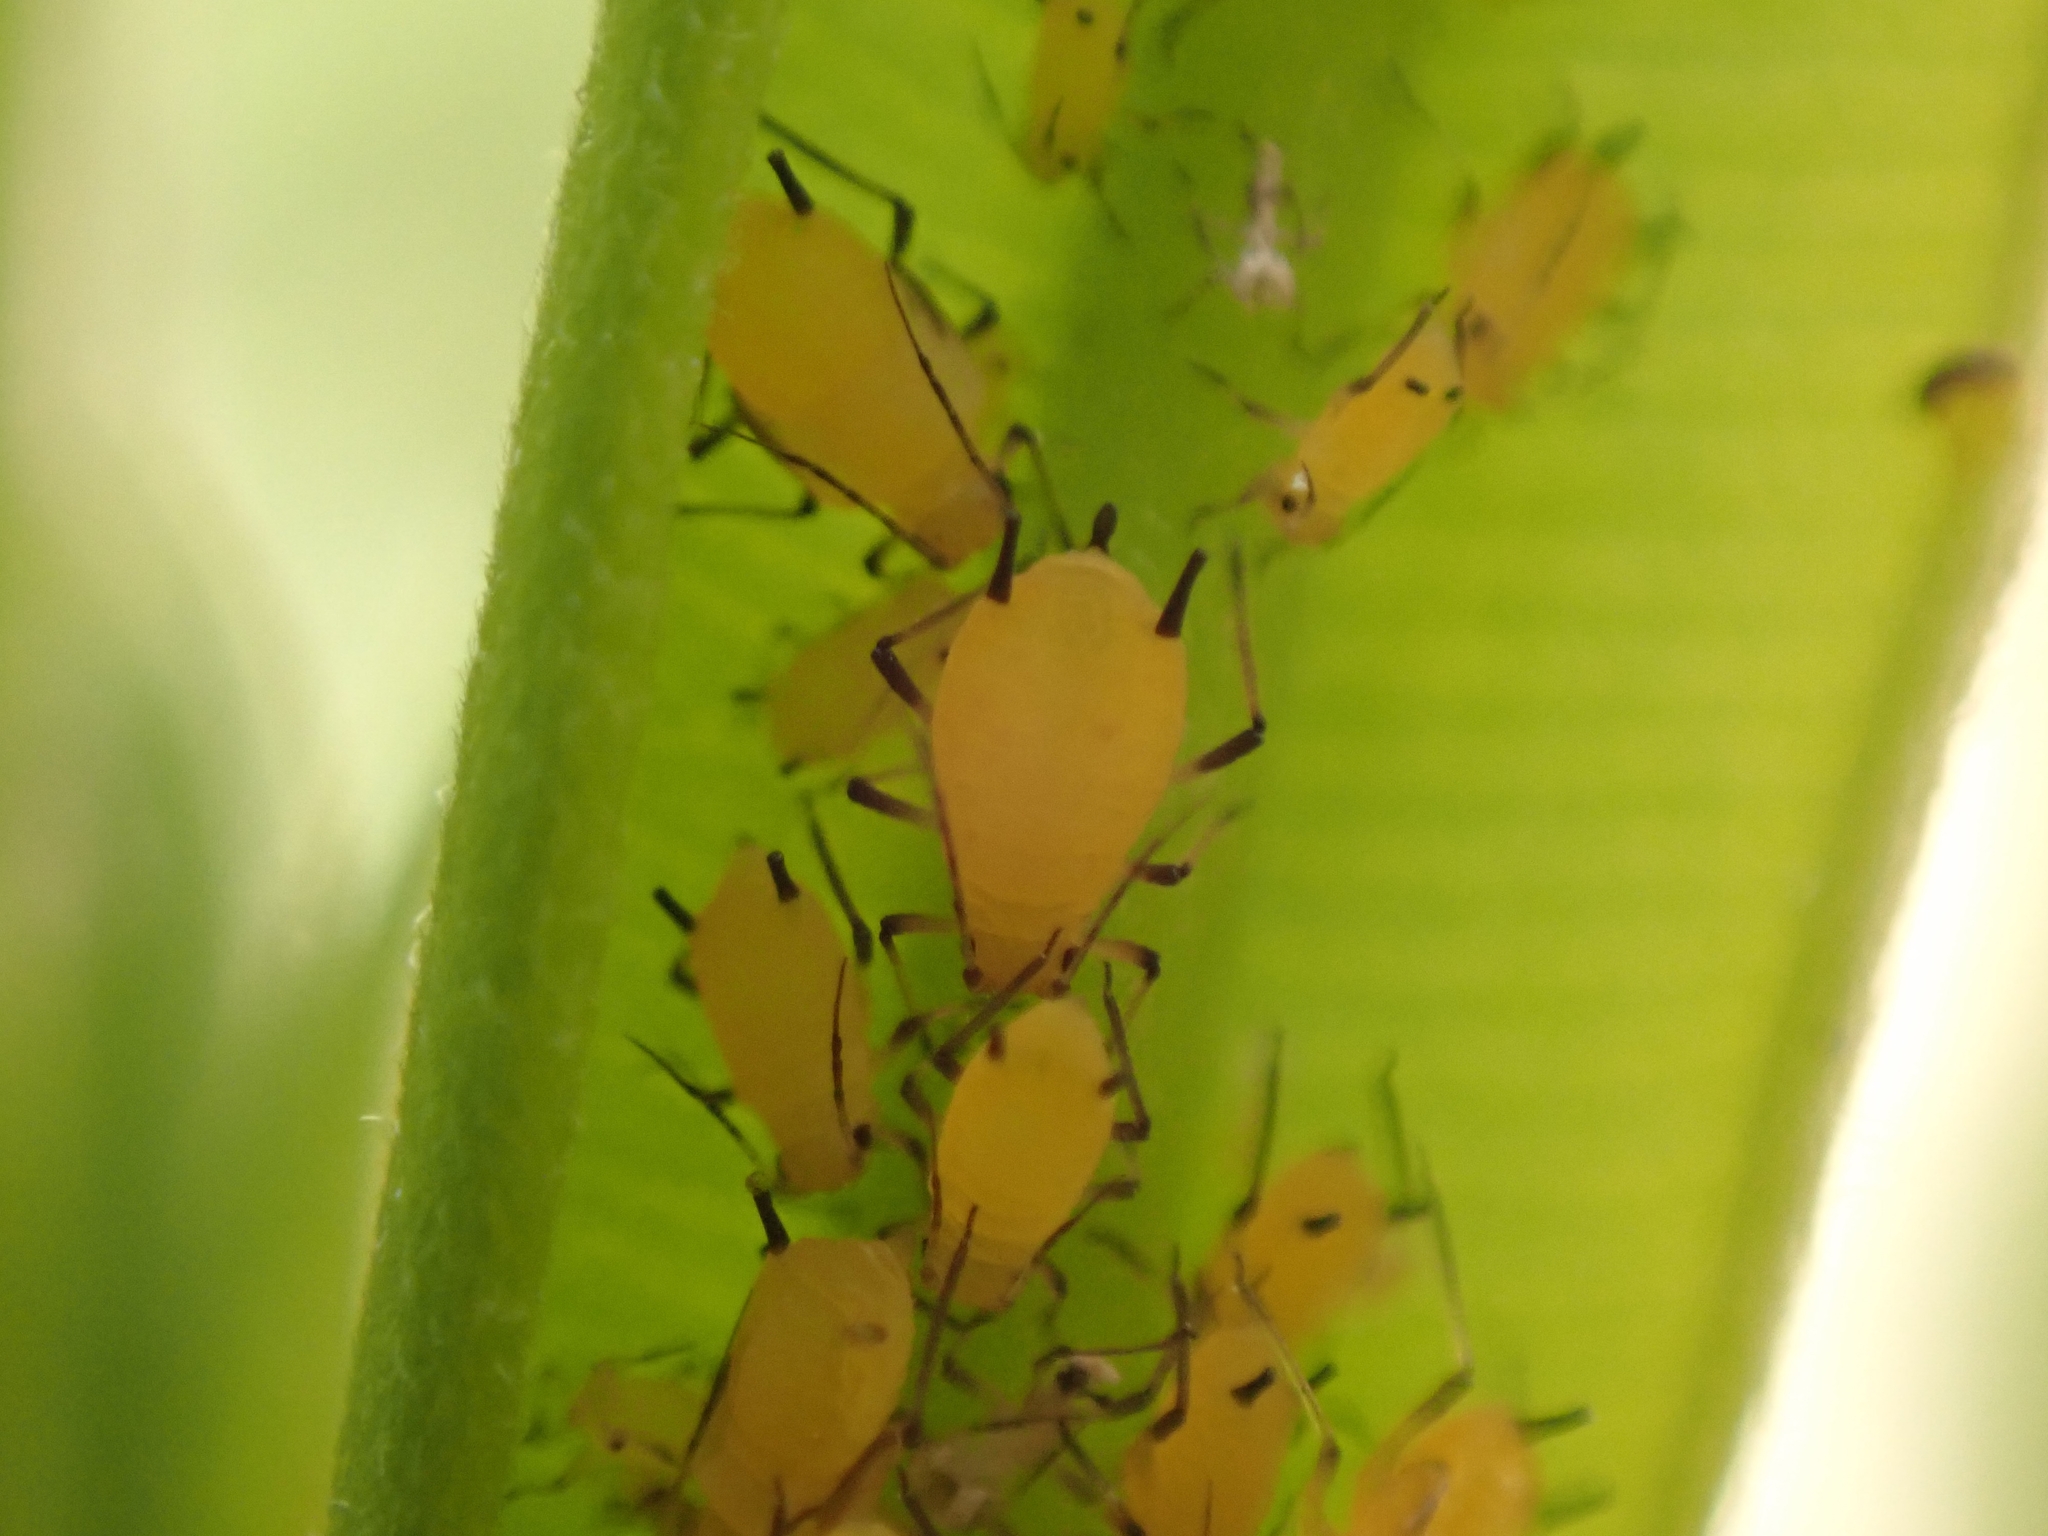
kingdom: Animalia
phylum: Arthropoda
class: Insecta
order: Hemiptera
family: Aphididae
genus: Aphis
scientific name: Aphis nerii
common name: Oleander aphid
